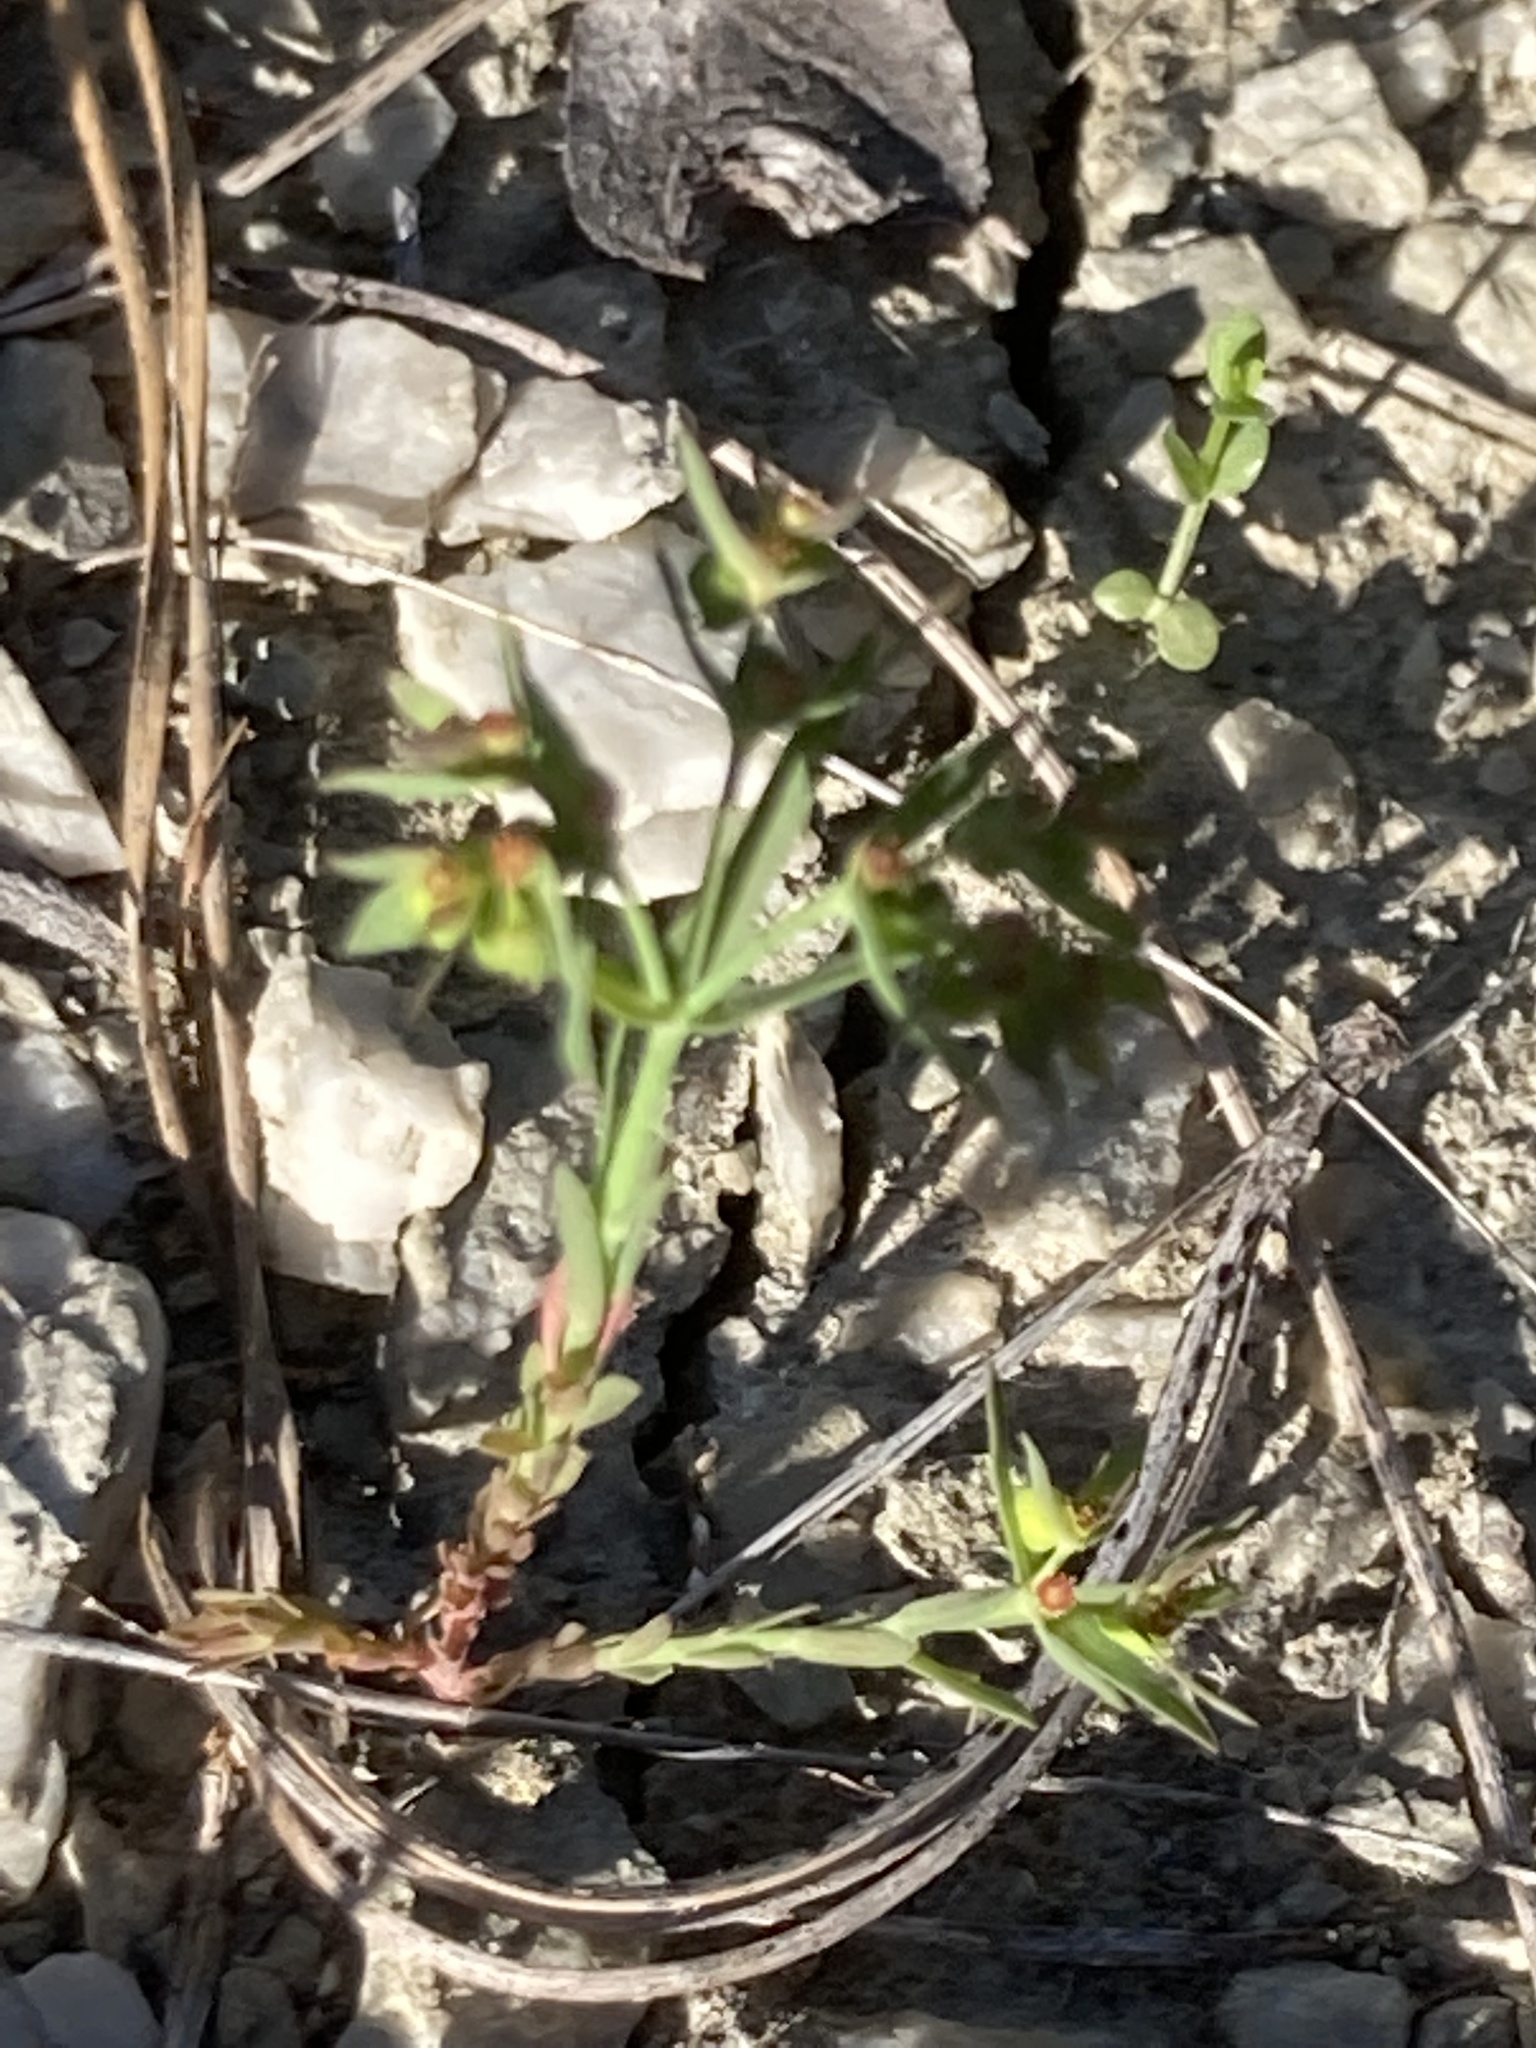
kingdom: Plantae
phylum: Tracheophyta
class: Magnoliopsida
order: Malpighiales
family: Euphorbiaceae
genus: Euphorbia
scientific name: Euphorbia exigua
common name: Dwarf spurge
